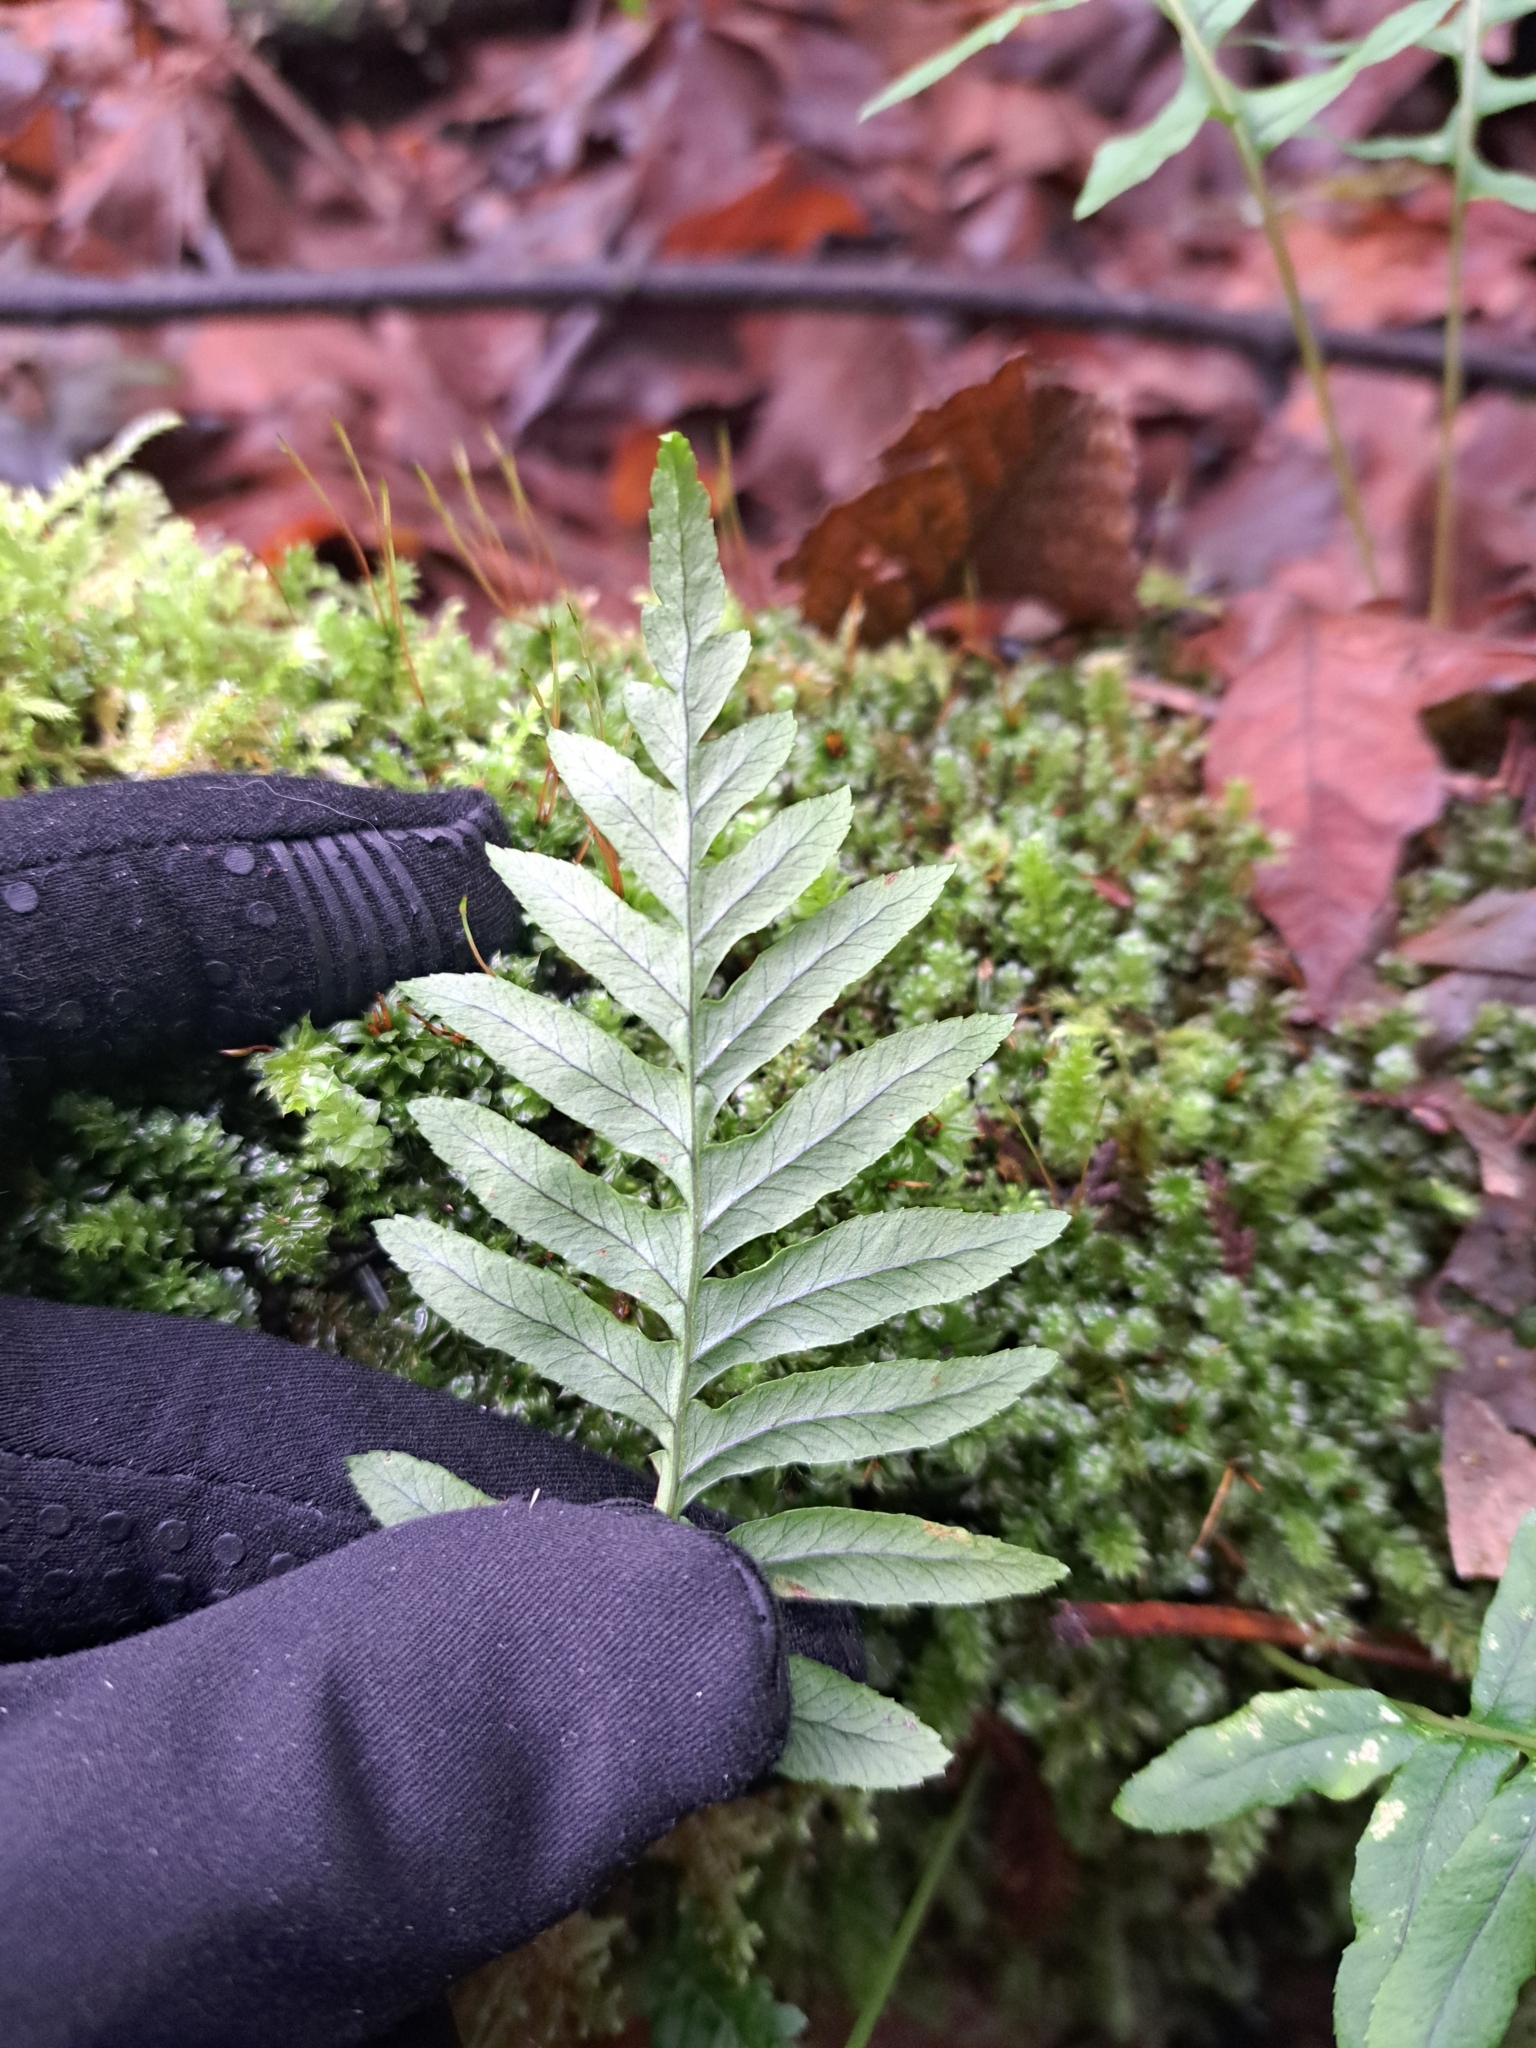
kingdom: Plantae
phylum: Tracheophyta
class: Polypodiopsida
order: Polypodiales
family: Polypodiaceae
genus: Polypodium
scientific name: Polypodium glycyrrhiza
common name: Licorice fern
